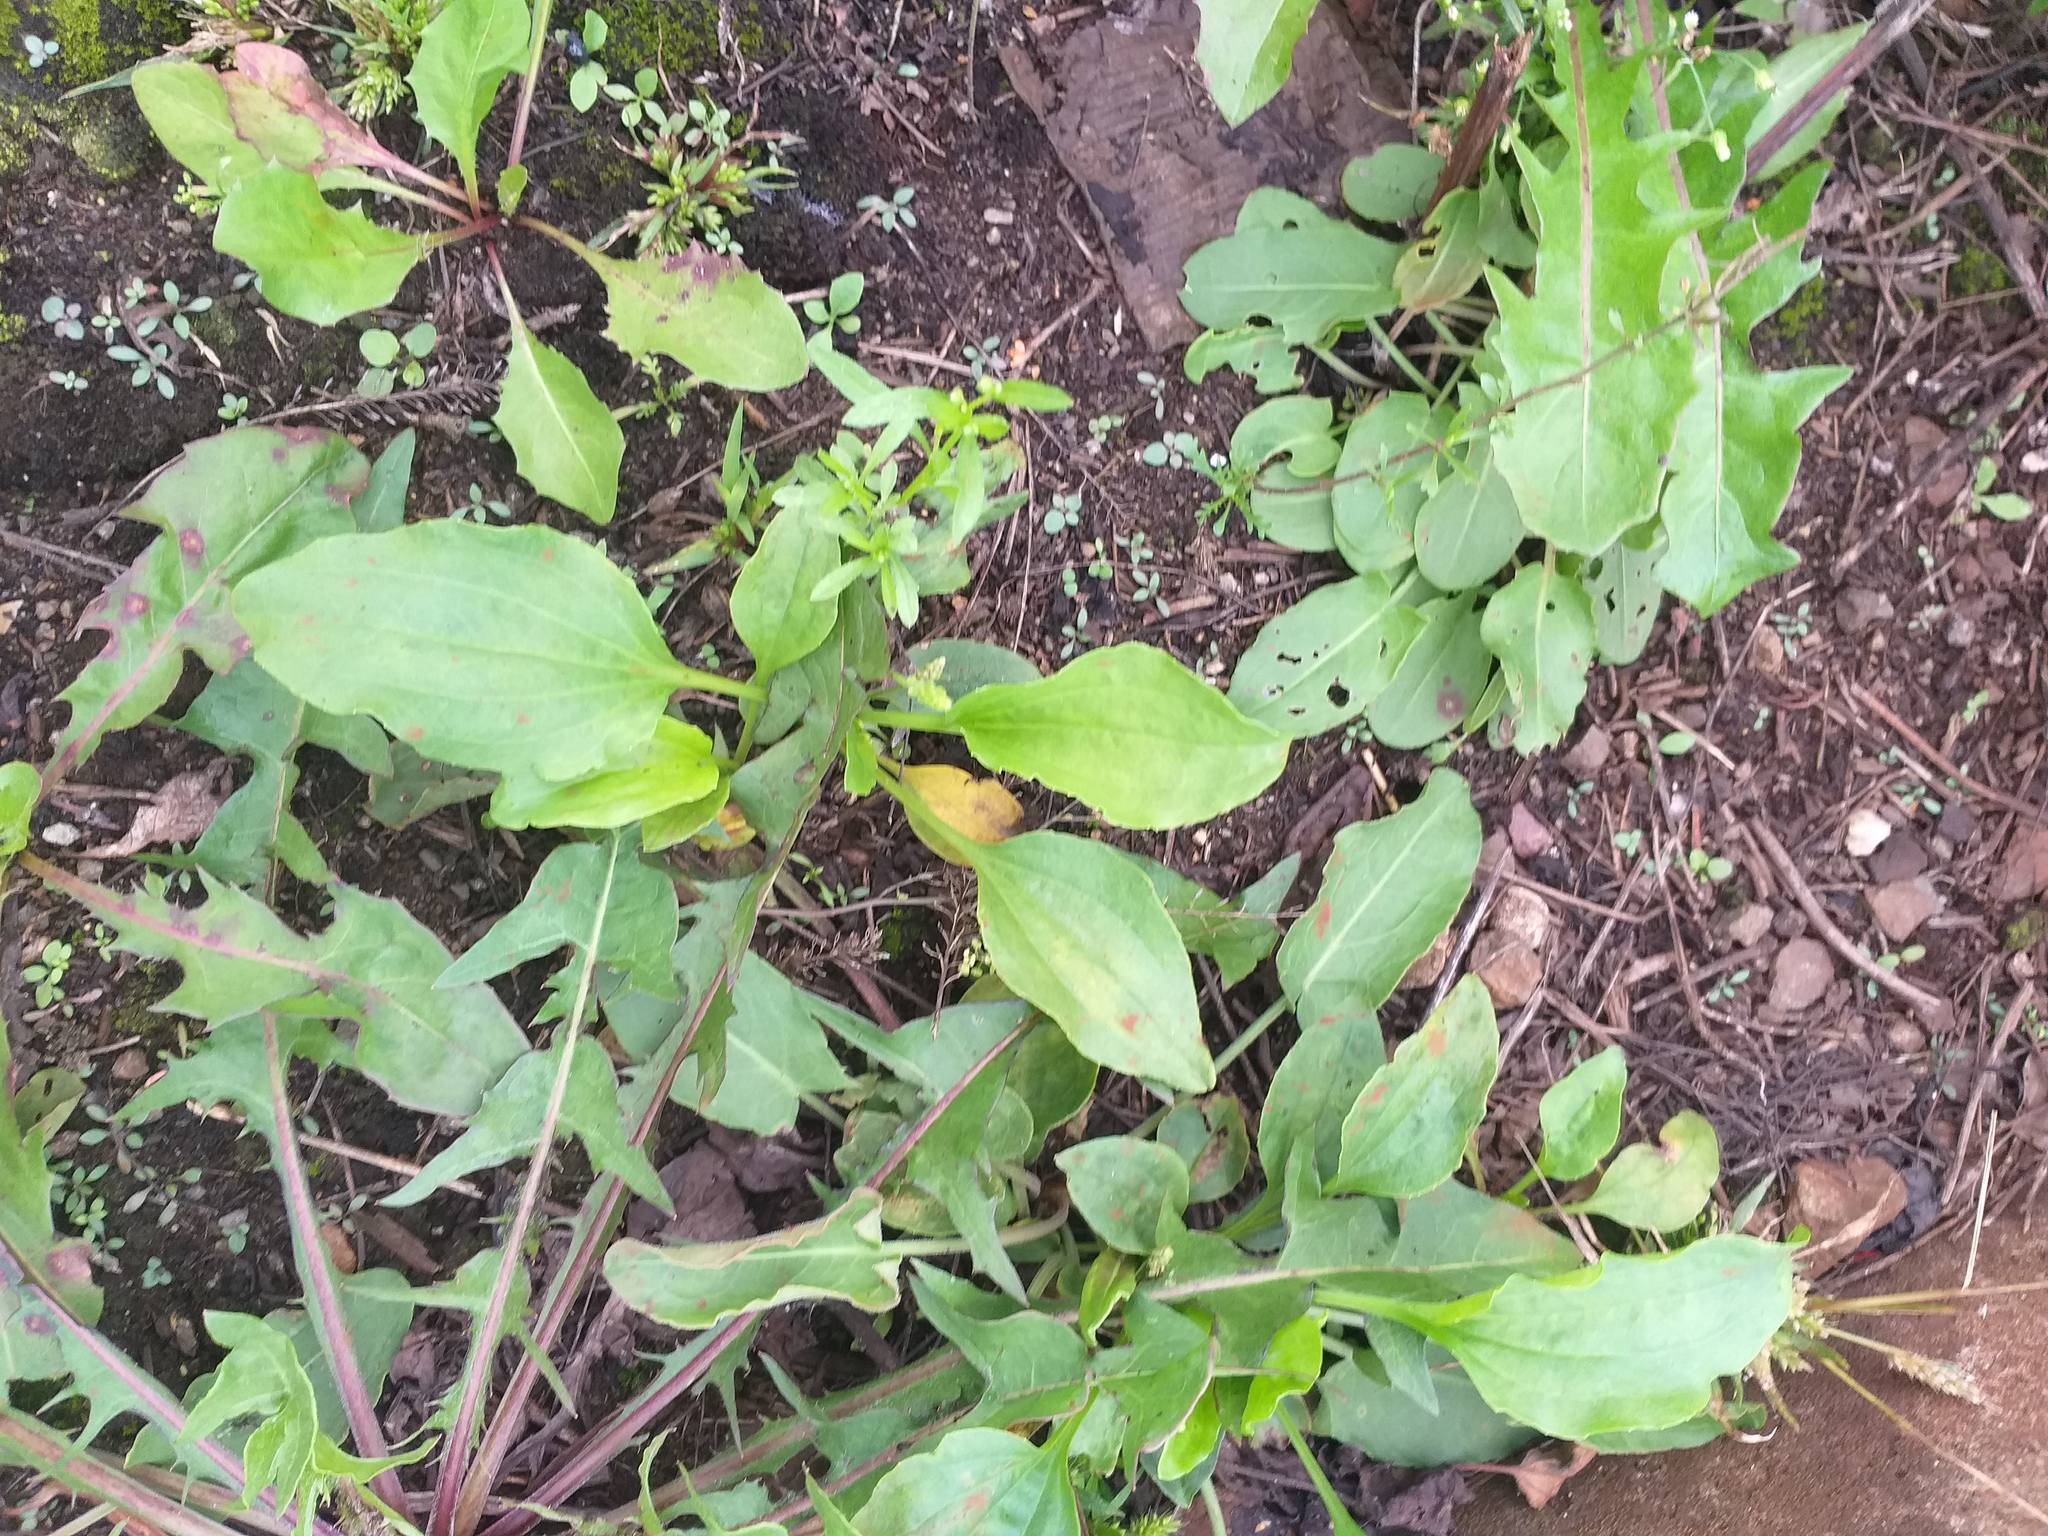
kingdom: Plantae
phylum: Tracheophyta
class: Magnoliopsida
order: Lamiales
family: Plantaginaceae
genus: Plantago
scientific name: Plantago major
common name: Common plantain
